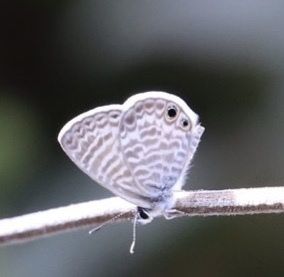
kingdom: Animalia
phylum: Arthropoda
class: Insecta
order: Lepidoptera
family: Lycaenidae
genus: Leptotes
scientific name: Leptotes marina
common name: Marine blue
